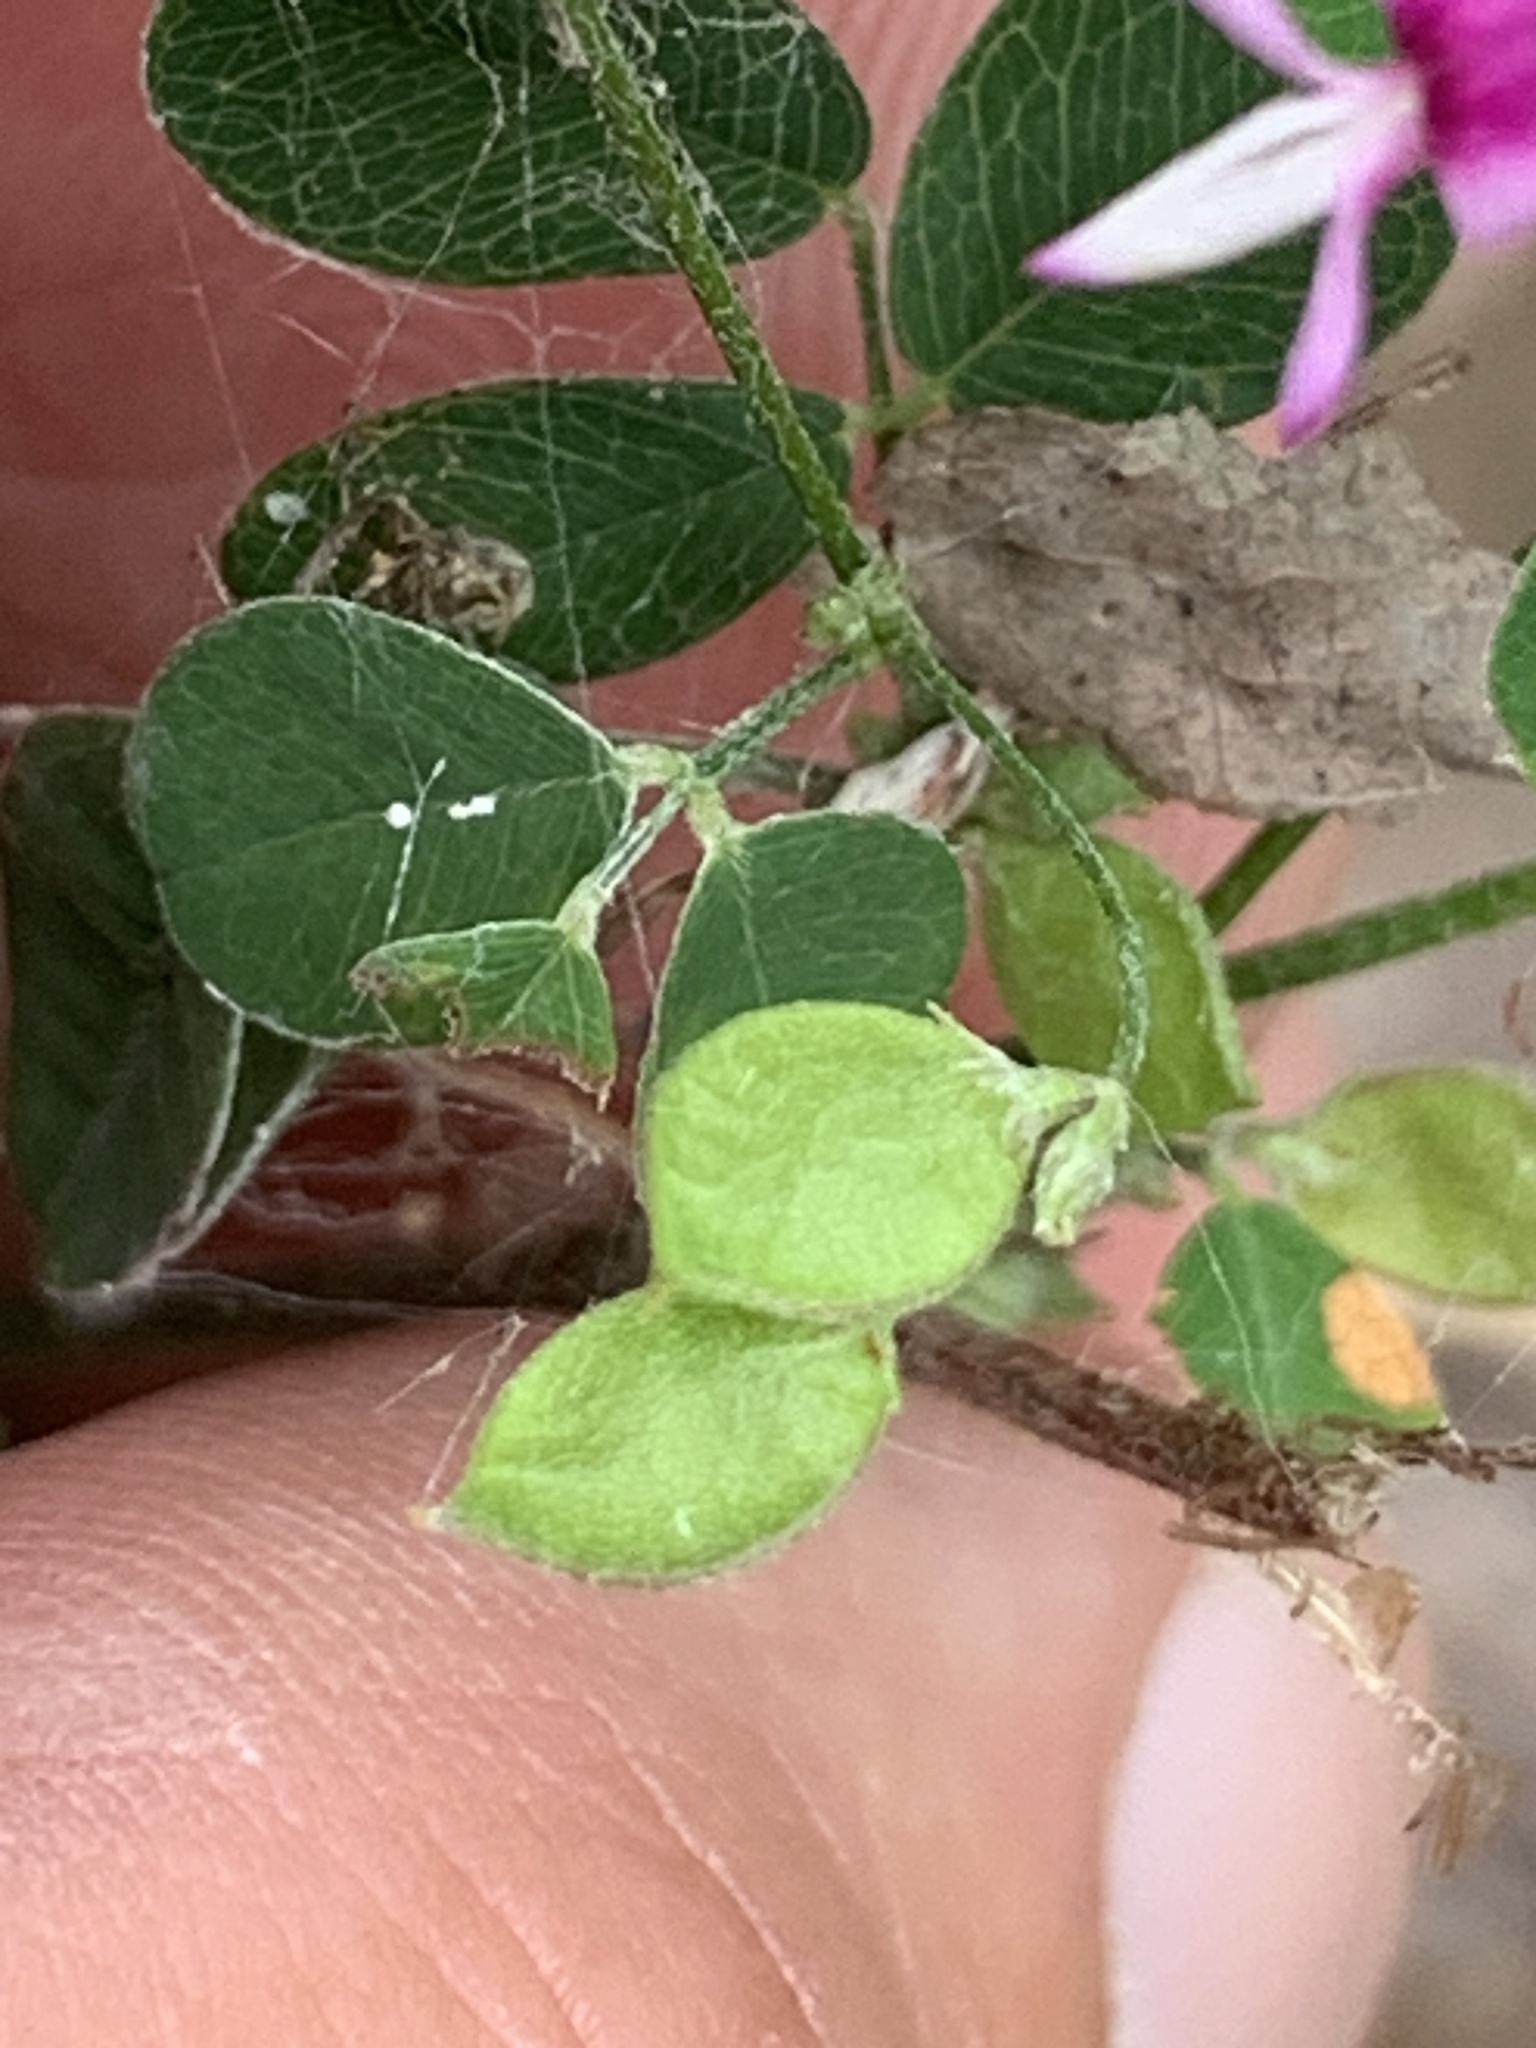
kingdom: Plantae
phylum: Tracheophyta
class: Magnoliopsida
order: Fabales
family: Fabaceae
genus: Lespedeza
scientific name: Lespedeza
